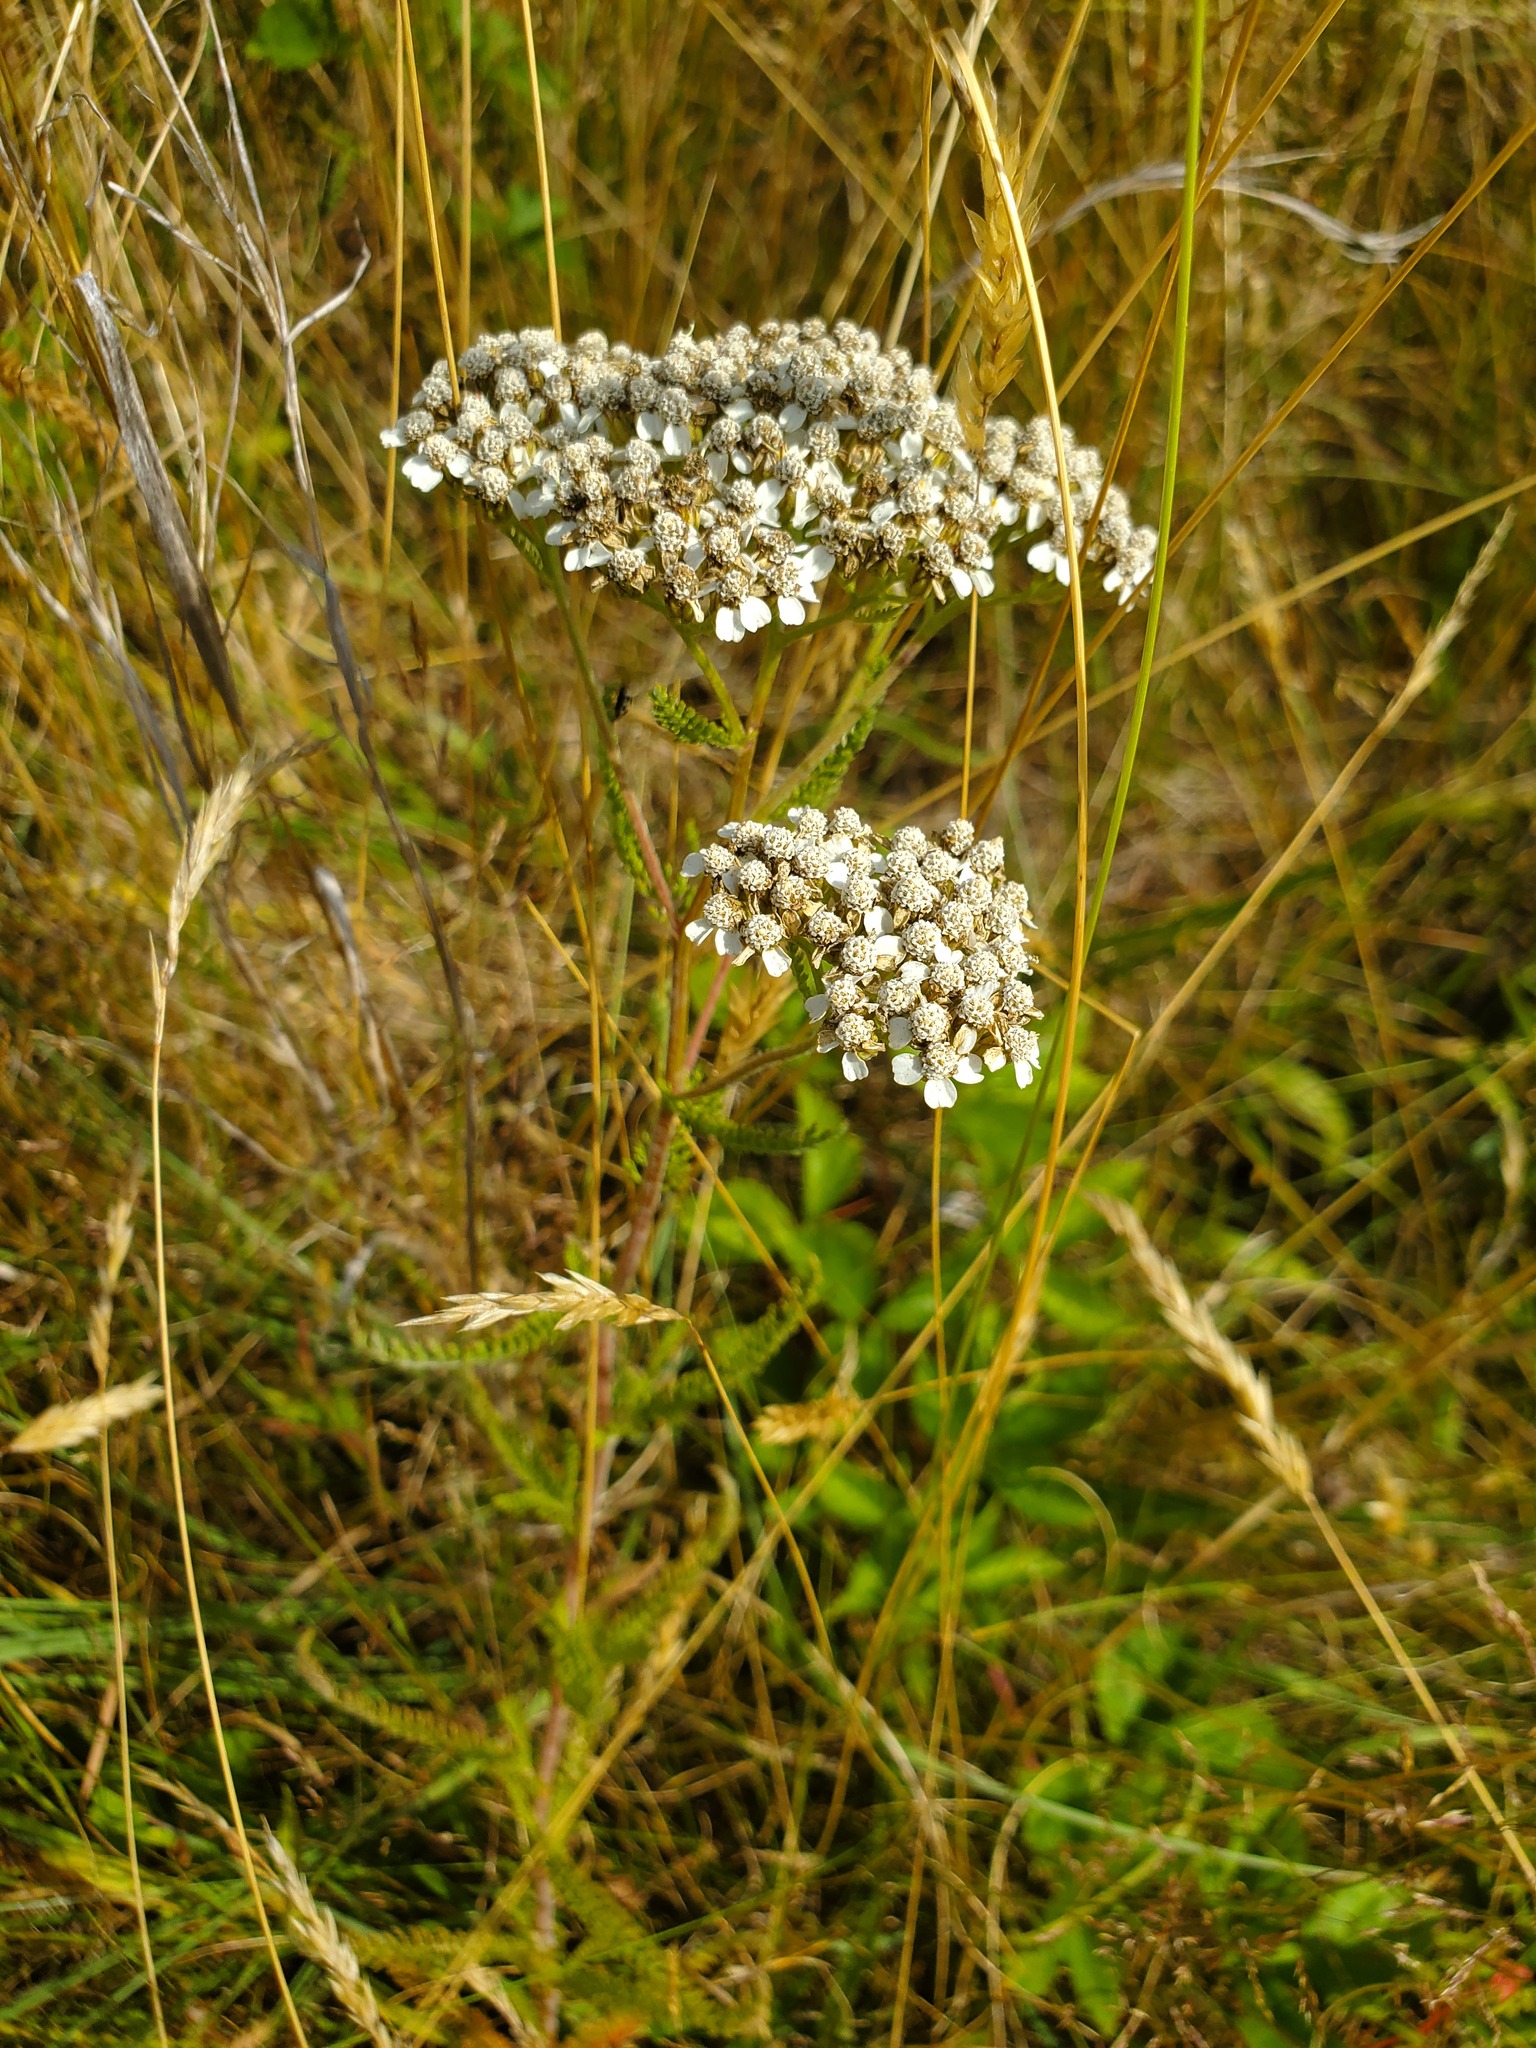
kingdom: Plantae
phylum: Tracheophyta
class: Magnoliopsida
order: Asterales
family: Asteraceae
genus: Achillea
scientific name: Achillea millefolium
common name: Yarrow
